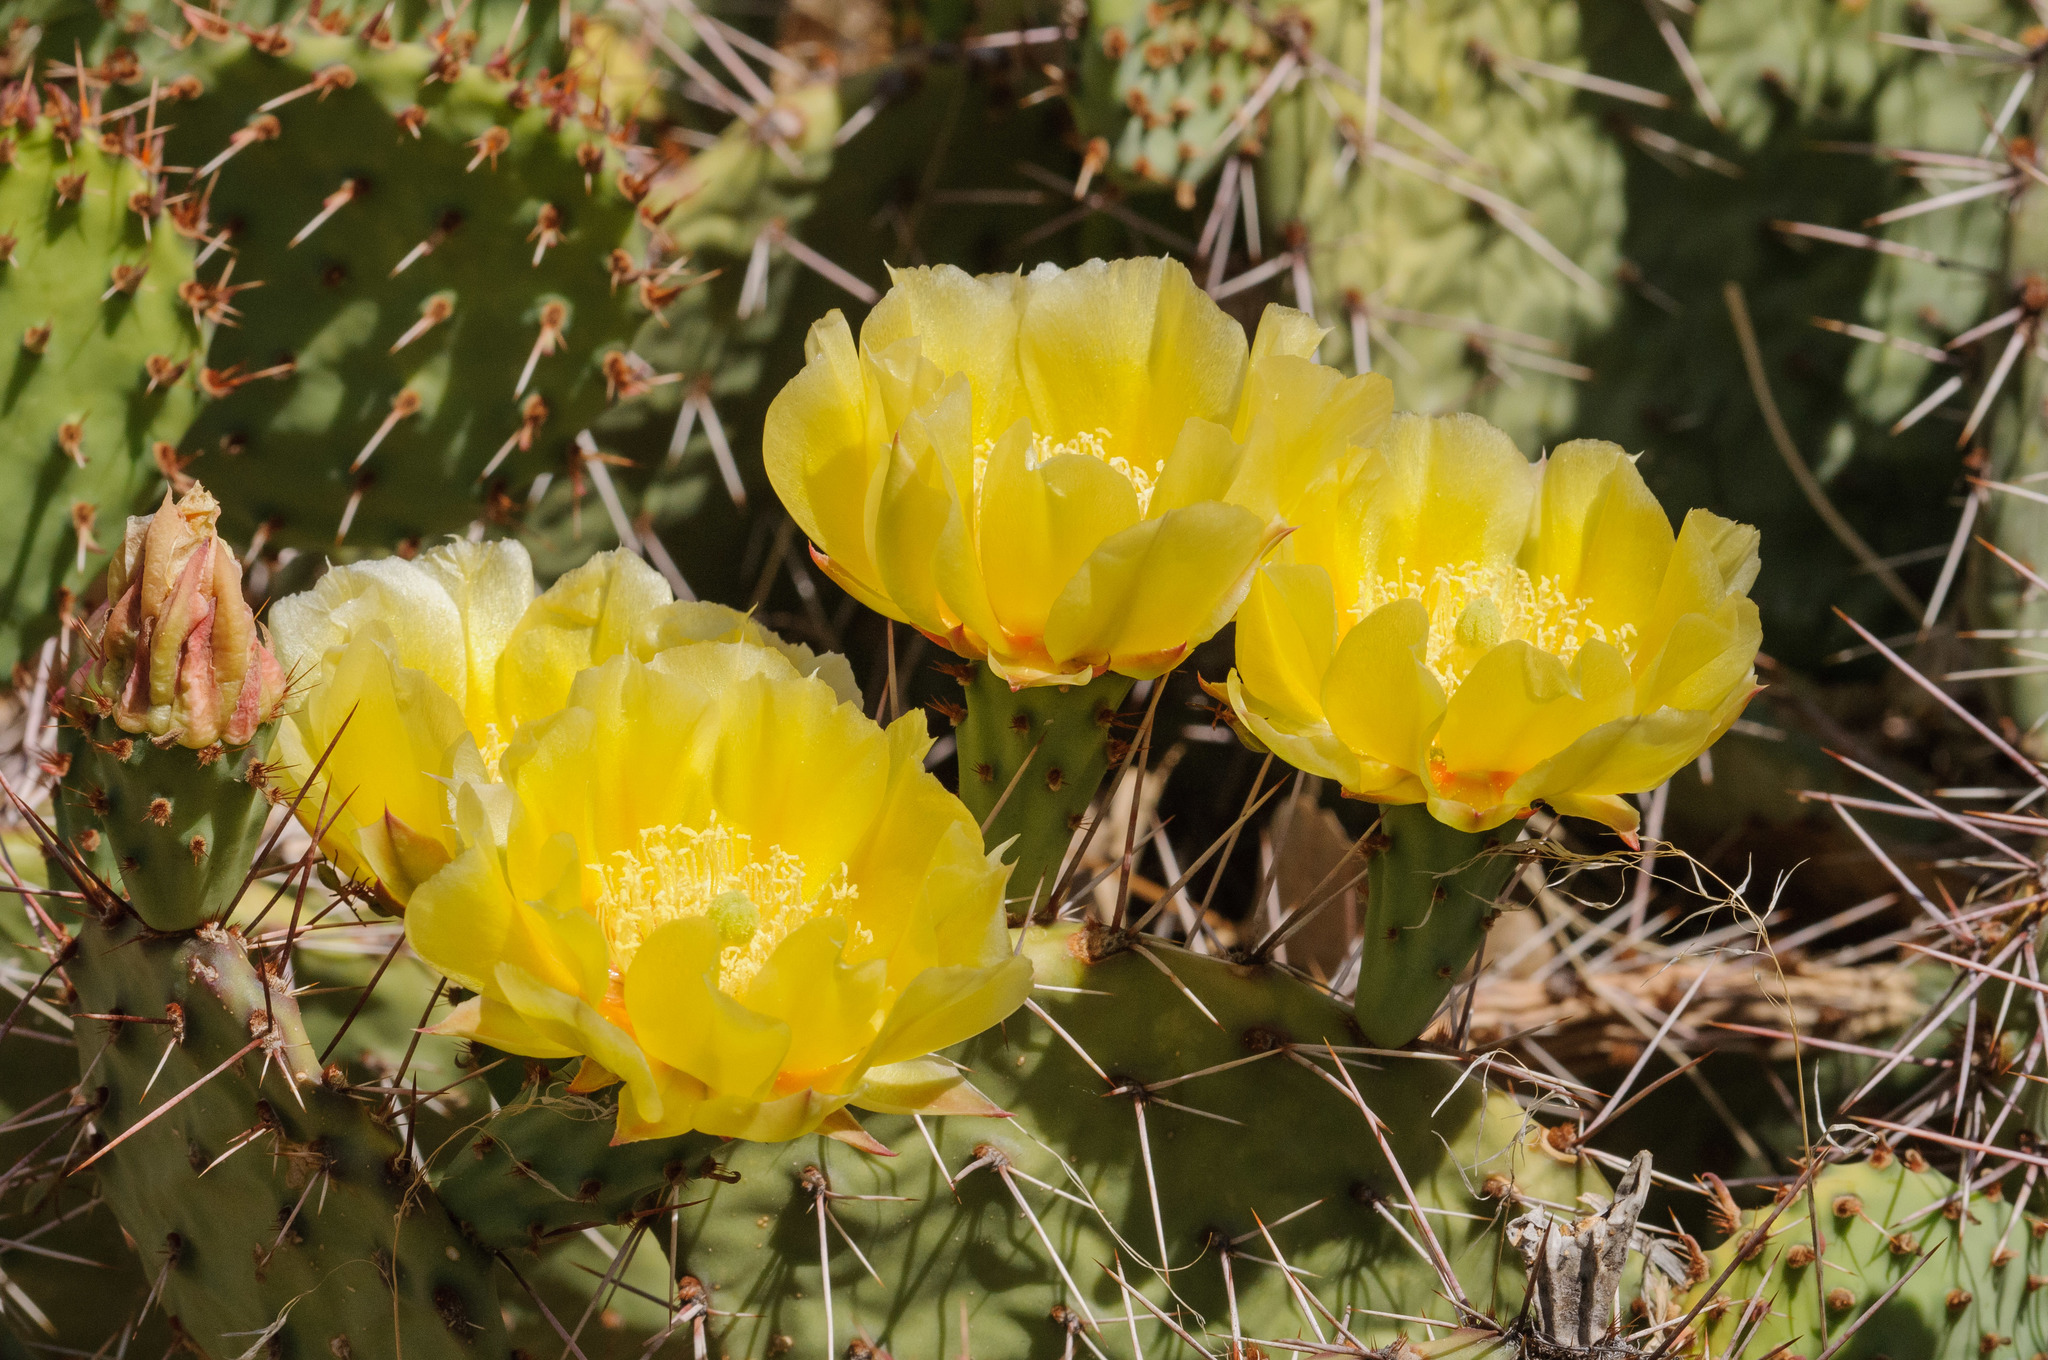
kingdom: Plantae
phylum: Tracheophyta
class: Magnoliopsida
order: Caryophyllales
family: Cactaceae
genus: Opuntia
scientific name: Opuntia macrorhiza
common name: Grassland pricklypear
